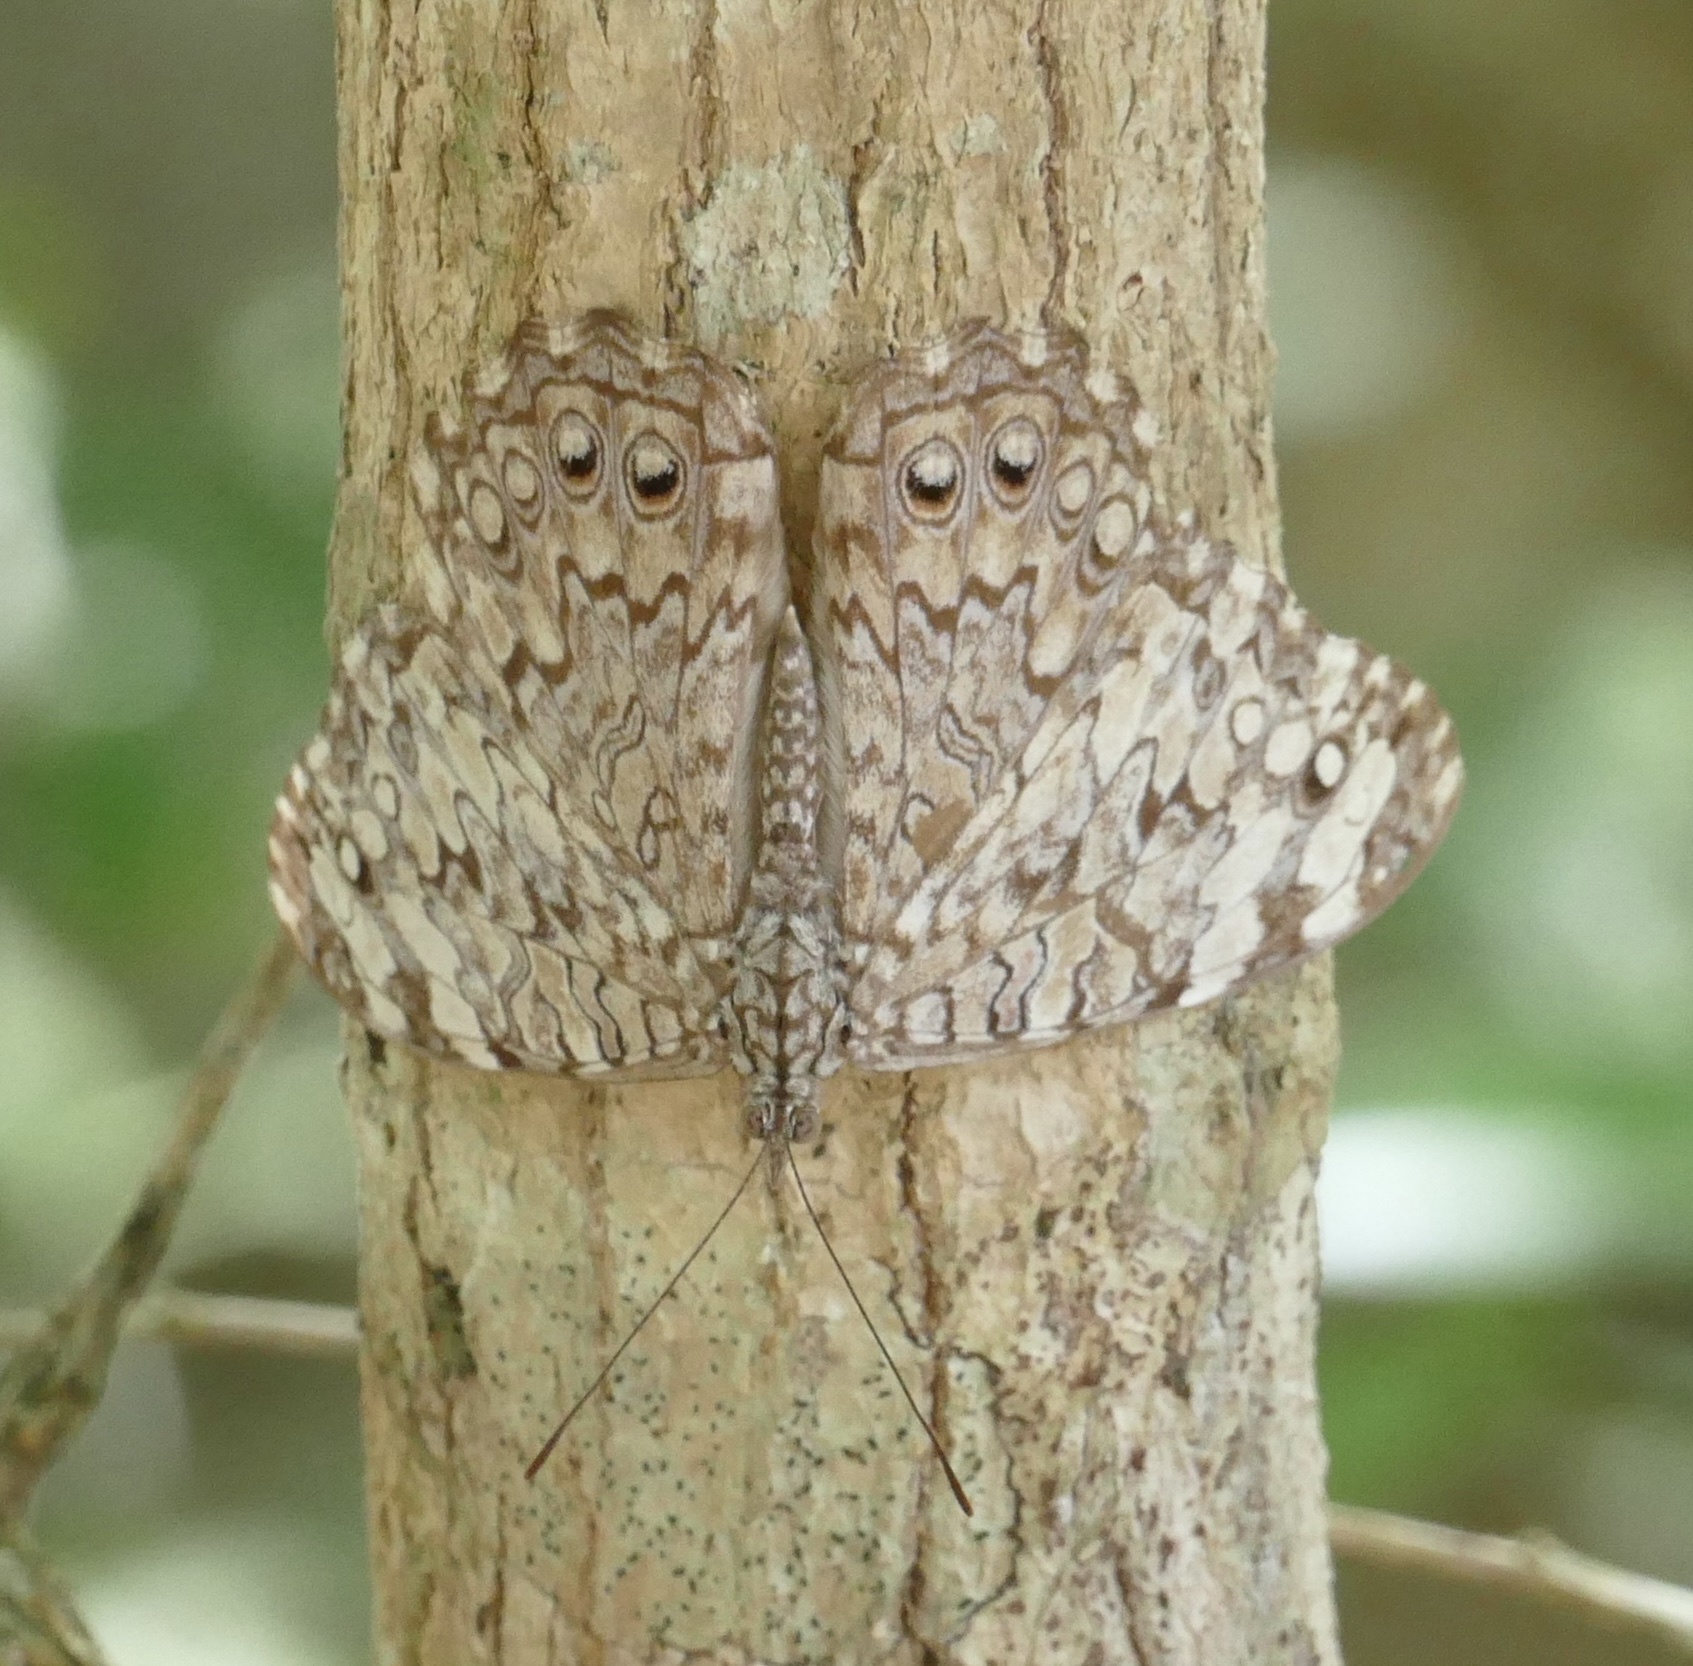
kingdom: Animalia
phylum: Arthropoda
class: Insecta
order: Lepidoptera
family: Nymphalidae
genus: Hamadryas
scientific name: Hamadryas februa
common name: Gray cracker
